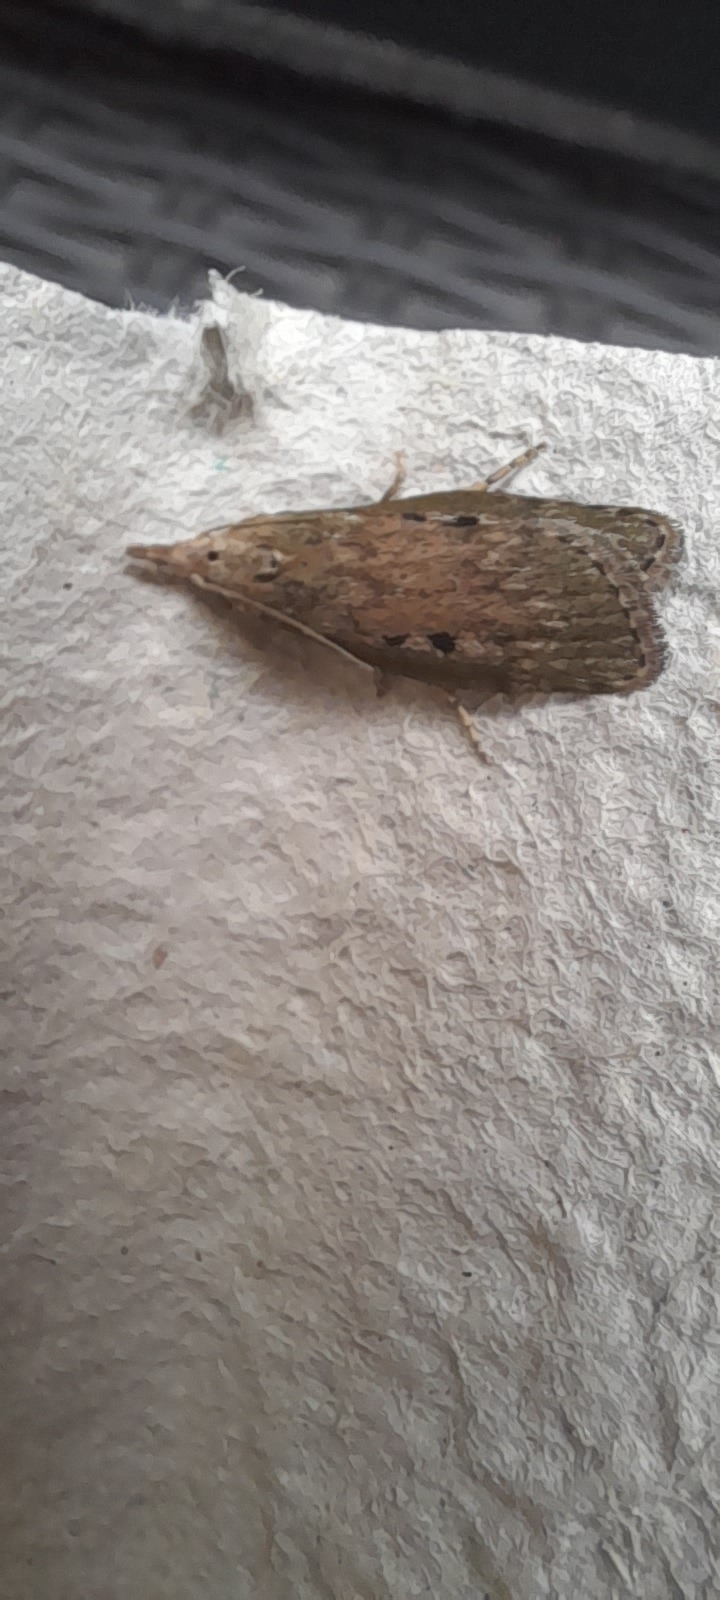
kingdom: Animalia
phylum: Arthropoda
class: Insecta
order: Lepidoptera
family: Pyralidae
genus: Aphomia
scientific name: Aphomia sociella
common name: Bee moth
